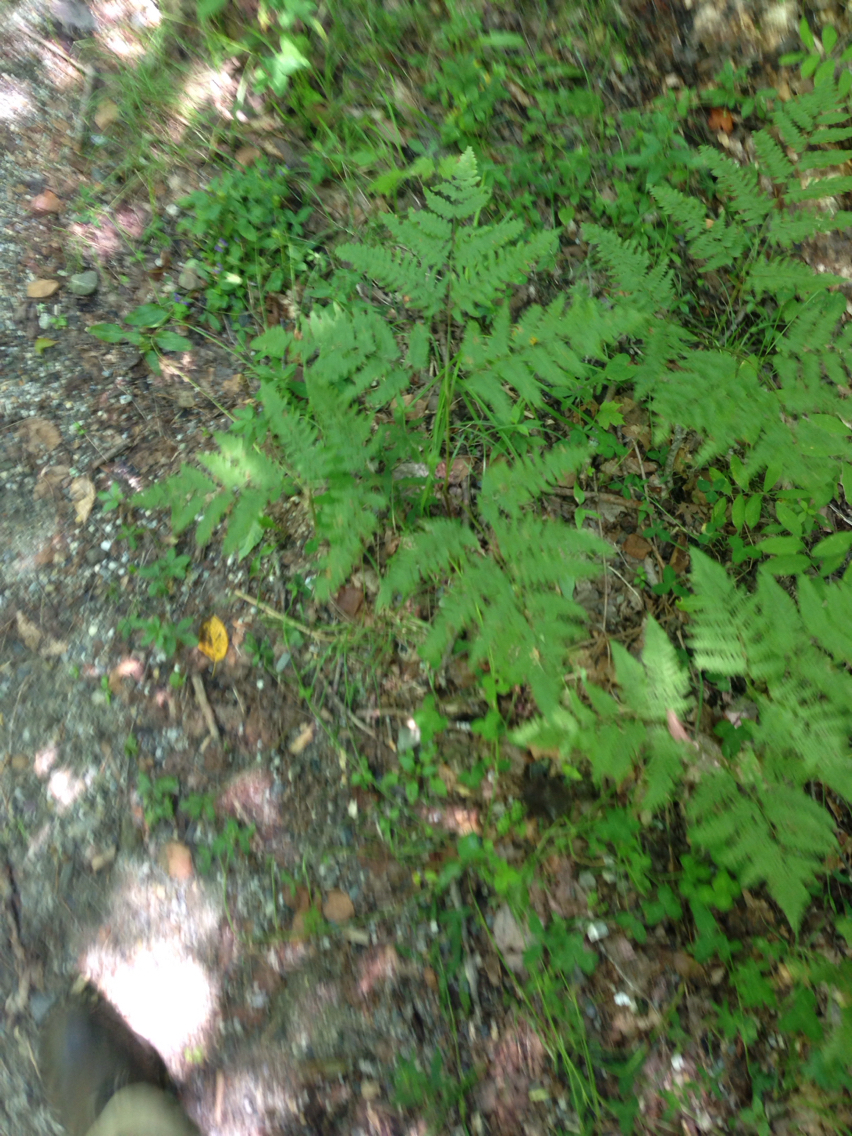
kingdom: Plantae
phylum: Tracheophyta
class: Polypodiopsida
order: Polypodiales
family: Dennstaedtiaceae
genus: Pteridium
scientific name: Pteridium aquilinum
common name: Bracken
